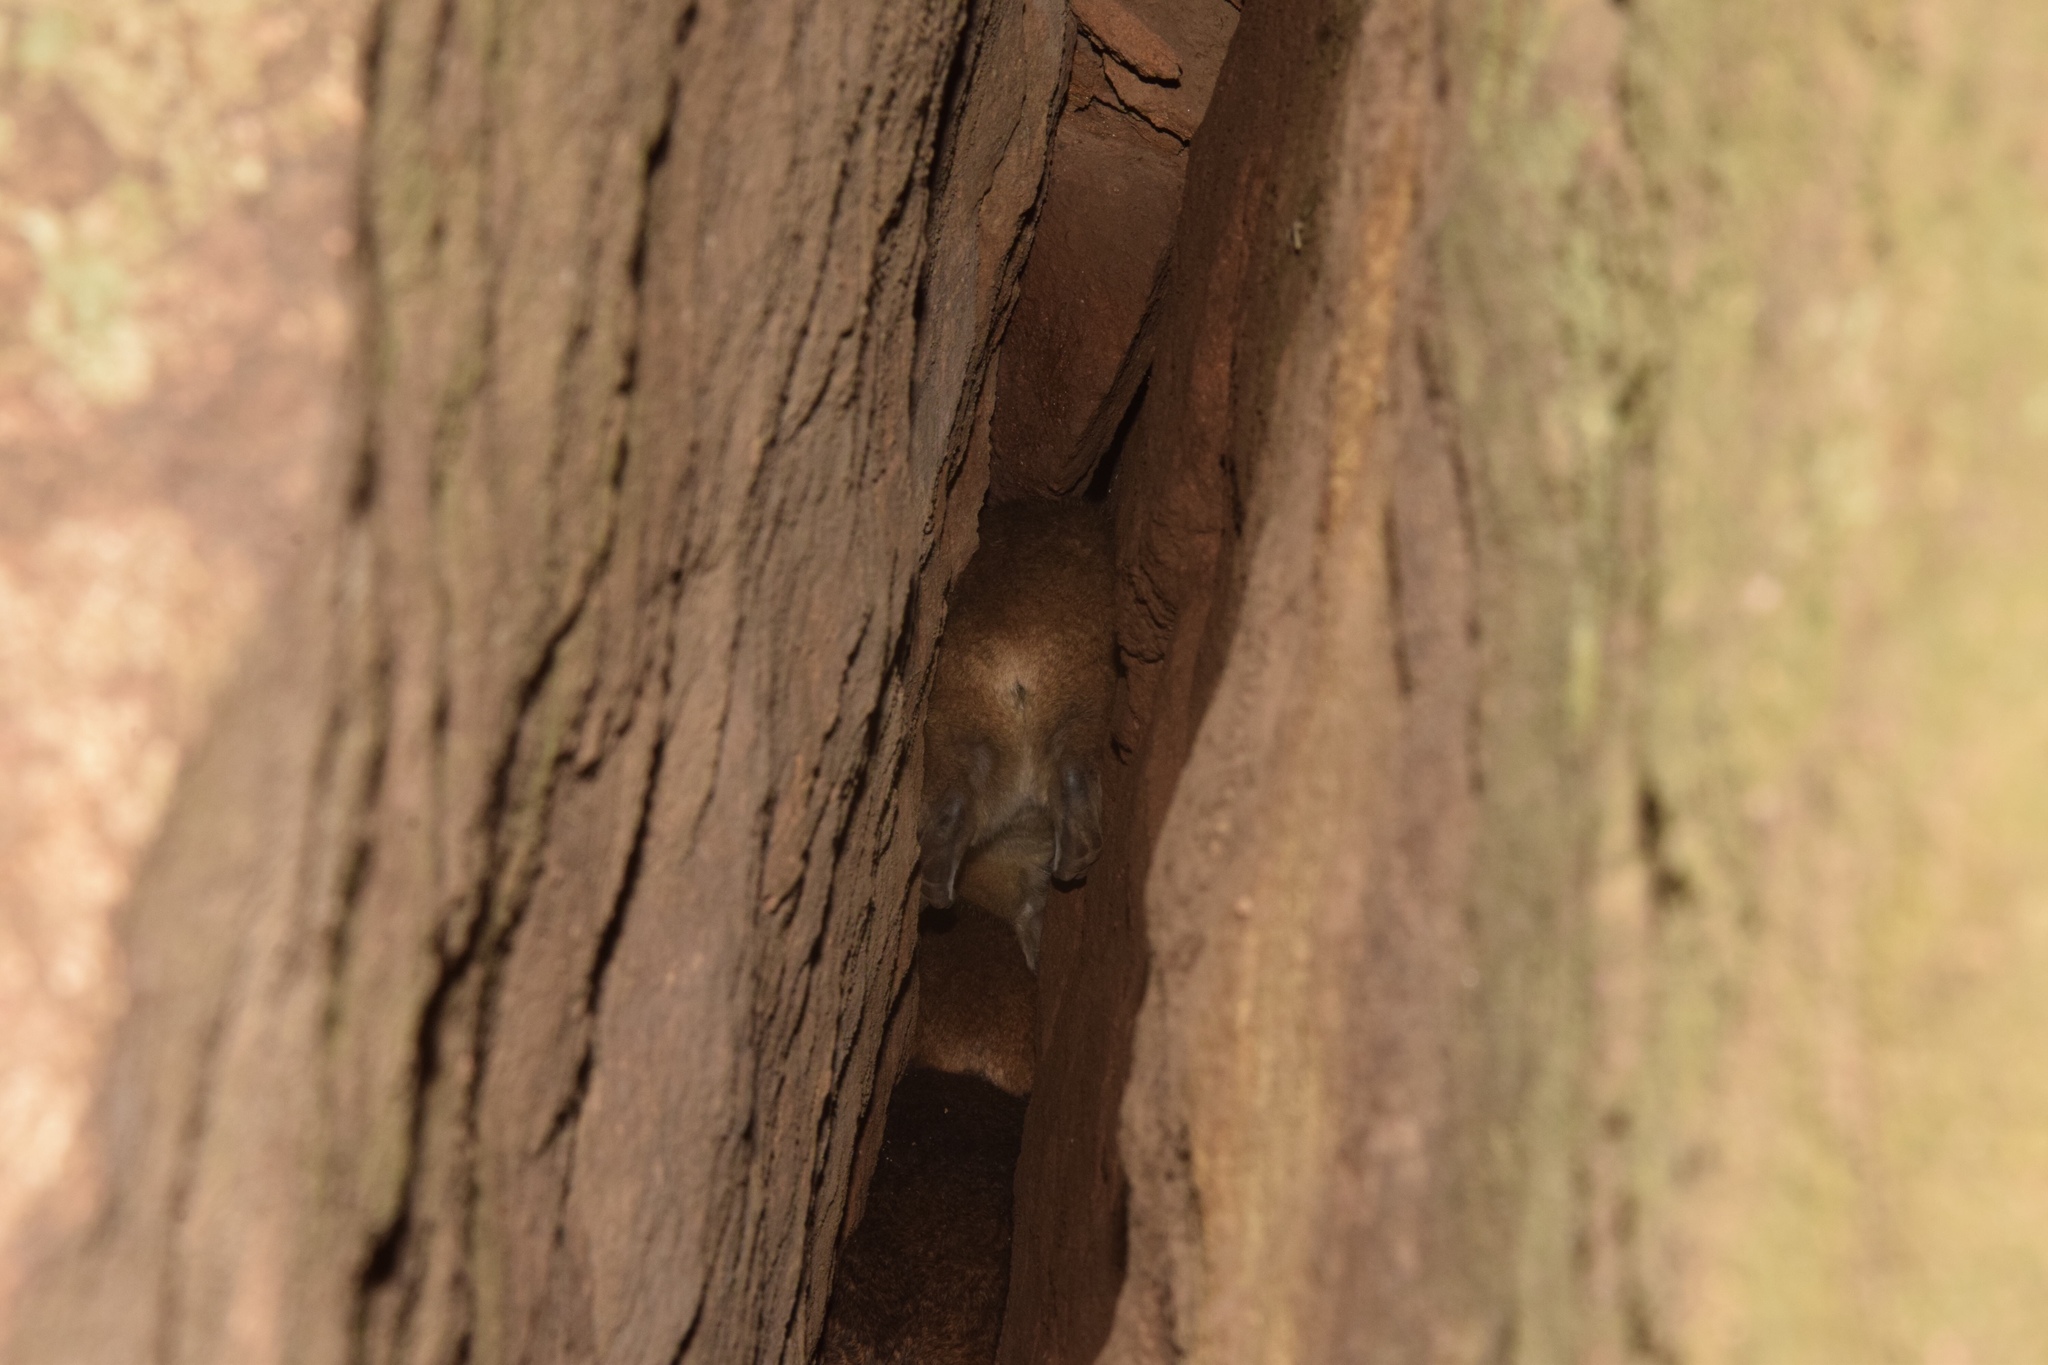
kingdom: Animalia
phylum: Chordata
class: Mammalia
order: Hyracoidea
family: Procaviidae
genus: Procavia
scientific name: Procavia capensis
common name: Rock hyrax
